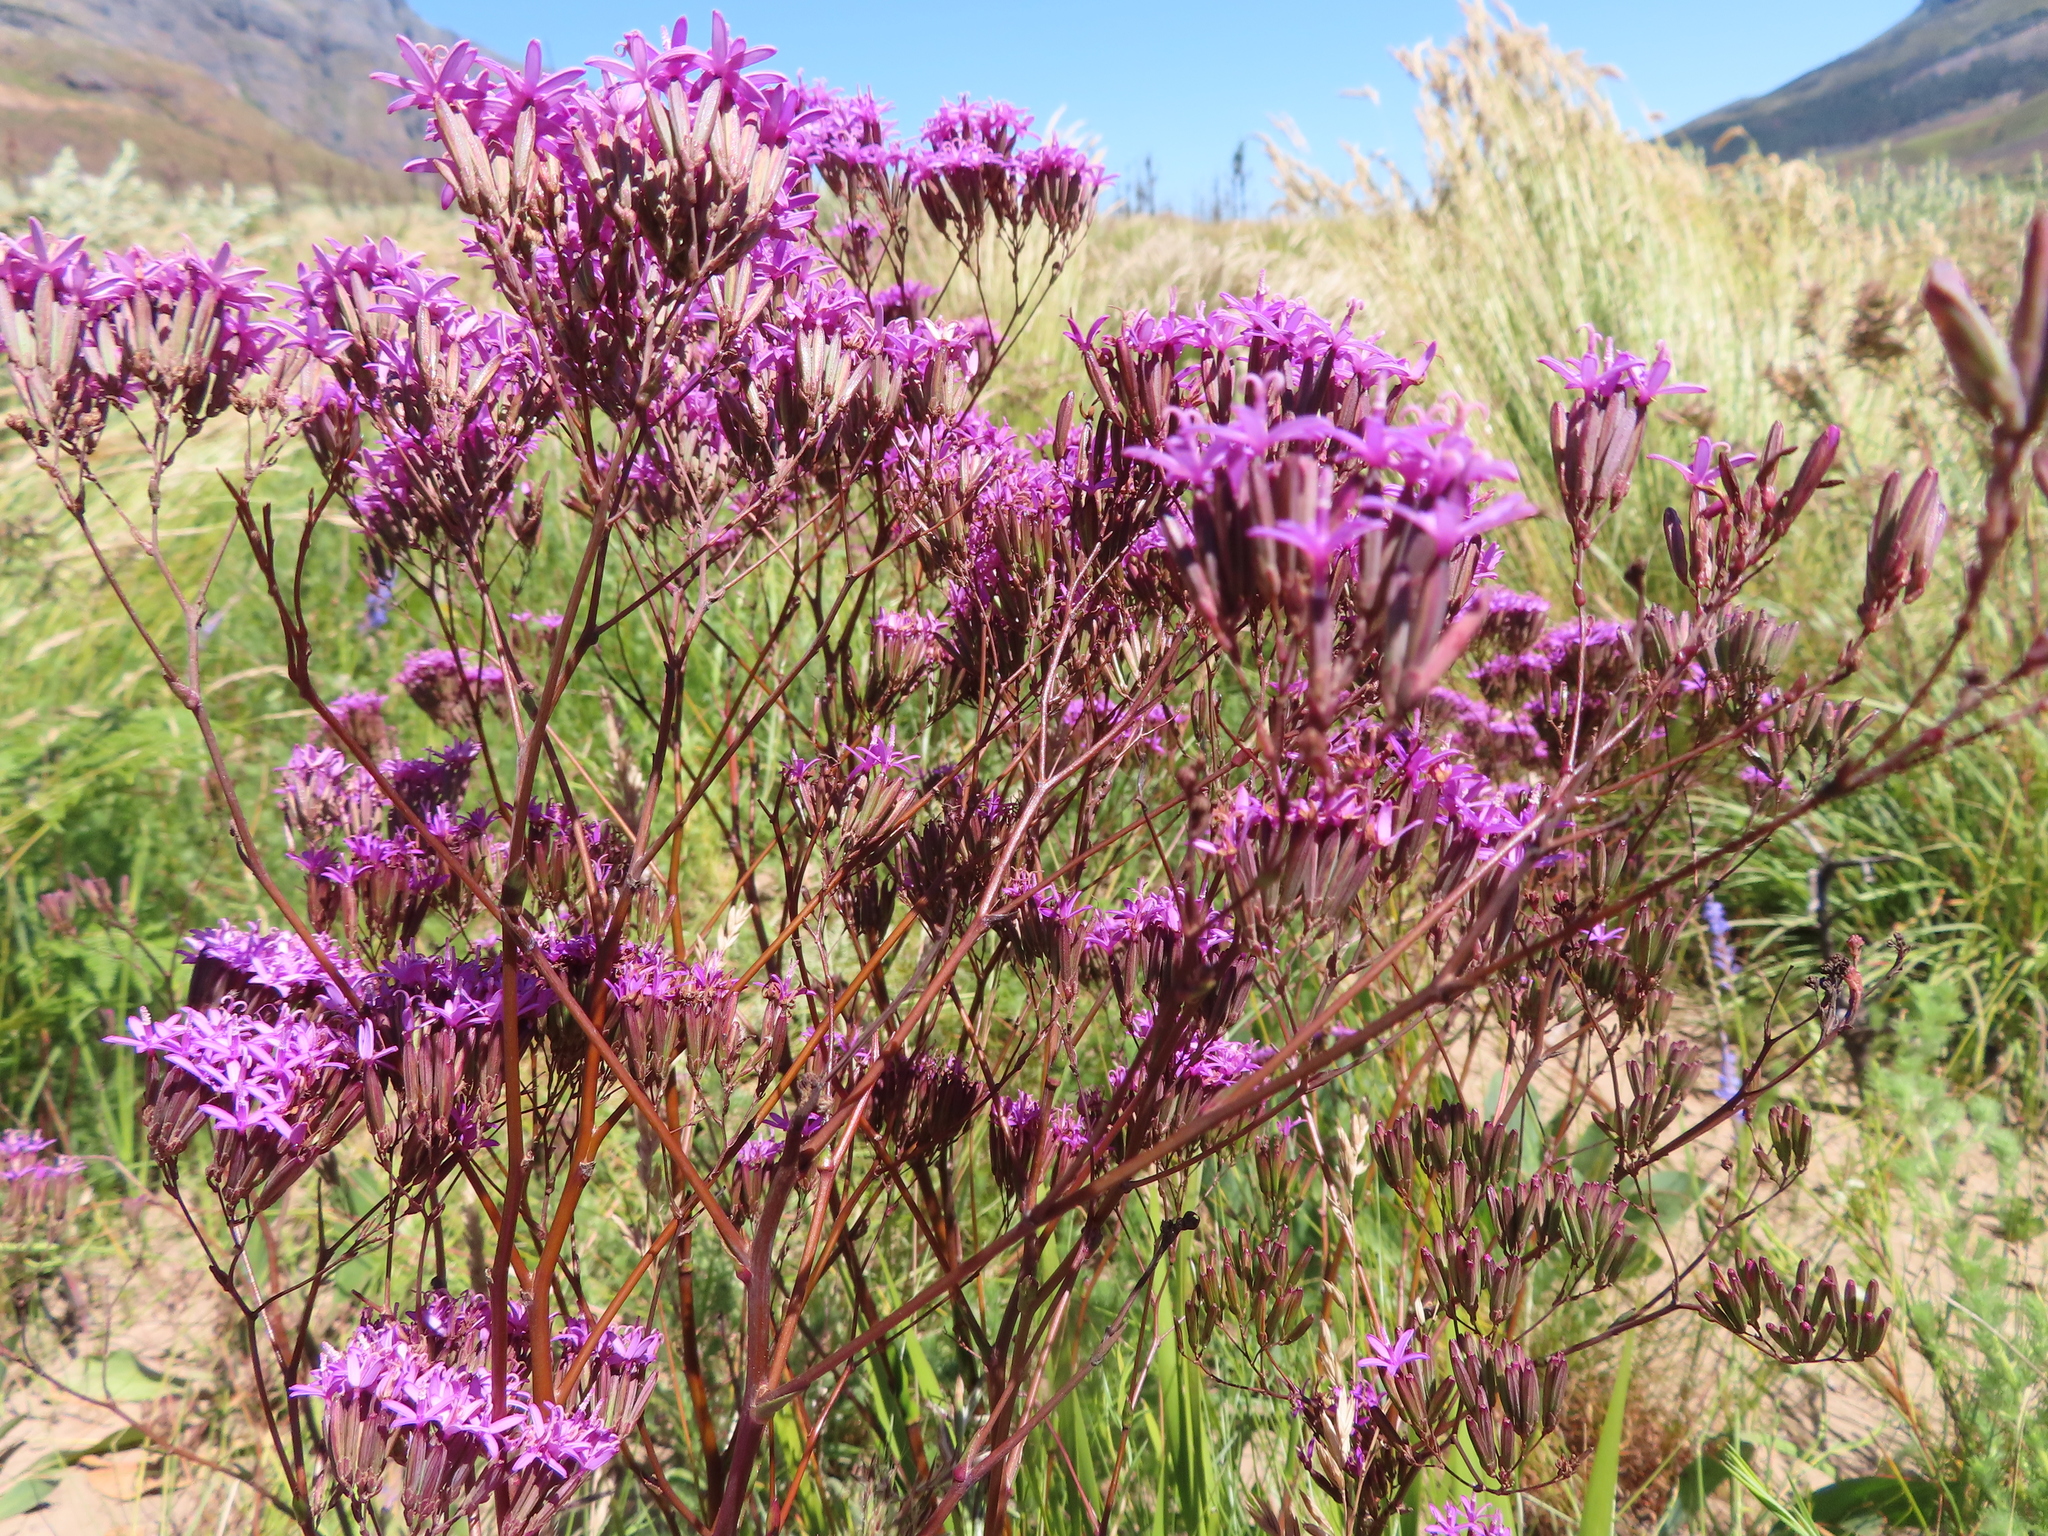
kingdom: Plantae
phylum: Tracheophyta
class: Magnoliopsida
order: Asterales
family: Asteraceae
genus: Corymbium
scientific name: Corymbium glabrum
